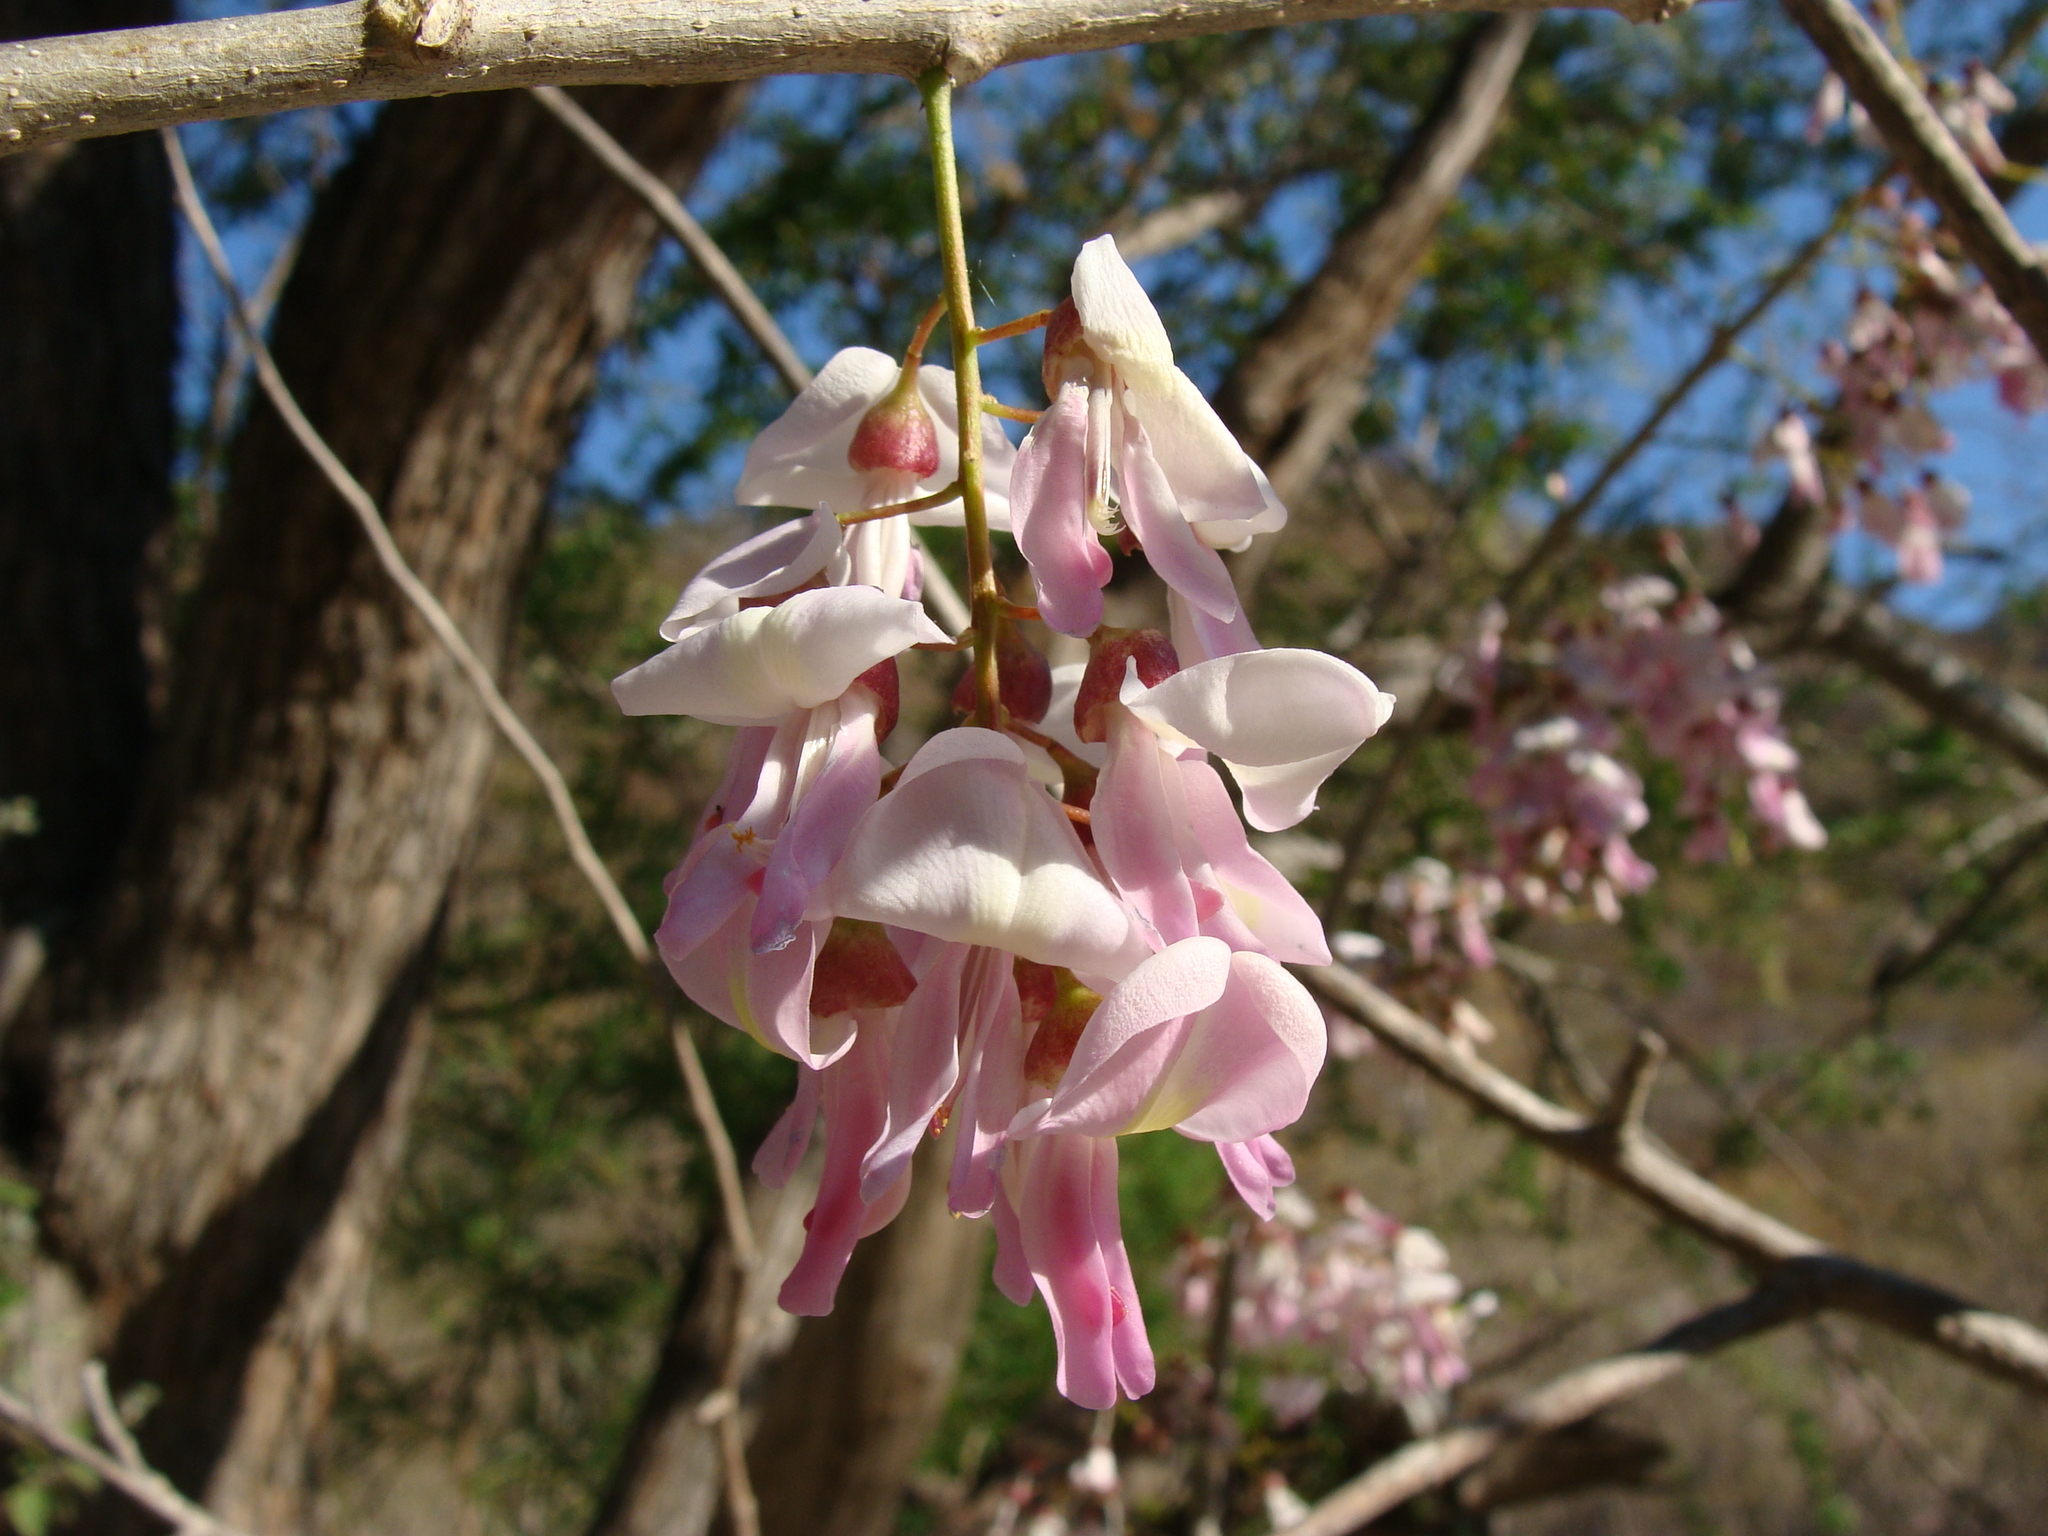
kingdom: Plantae
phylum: Tracheophyta
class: Magnoliopsida
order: Fabales
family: Fabaceae
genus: Gliricidia
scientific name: Gliricidia sepium
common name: Quickstick
